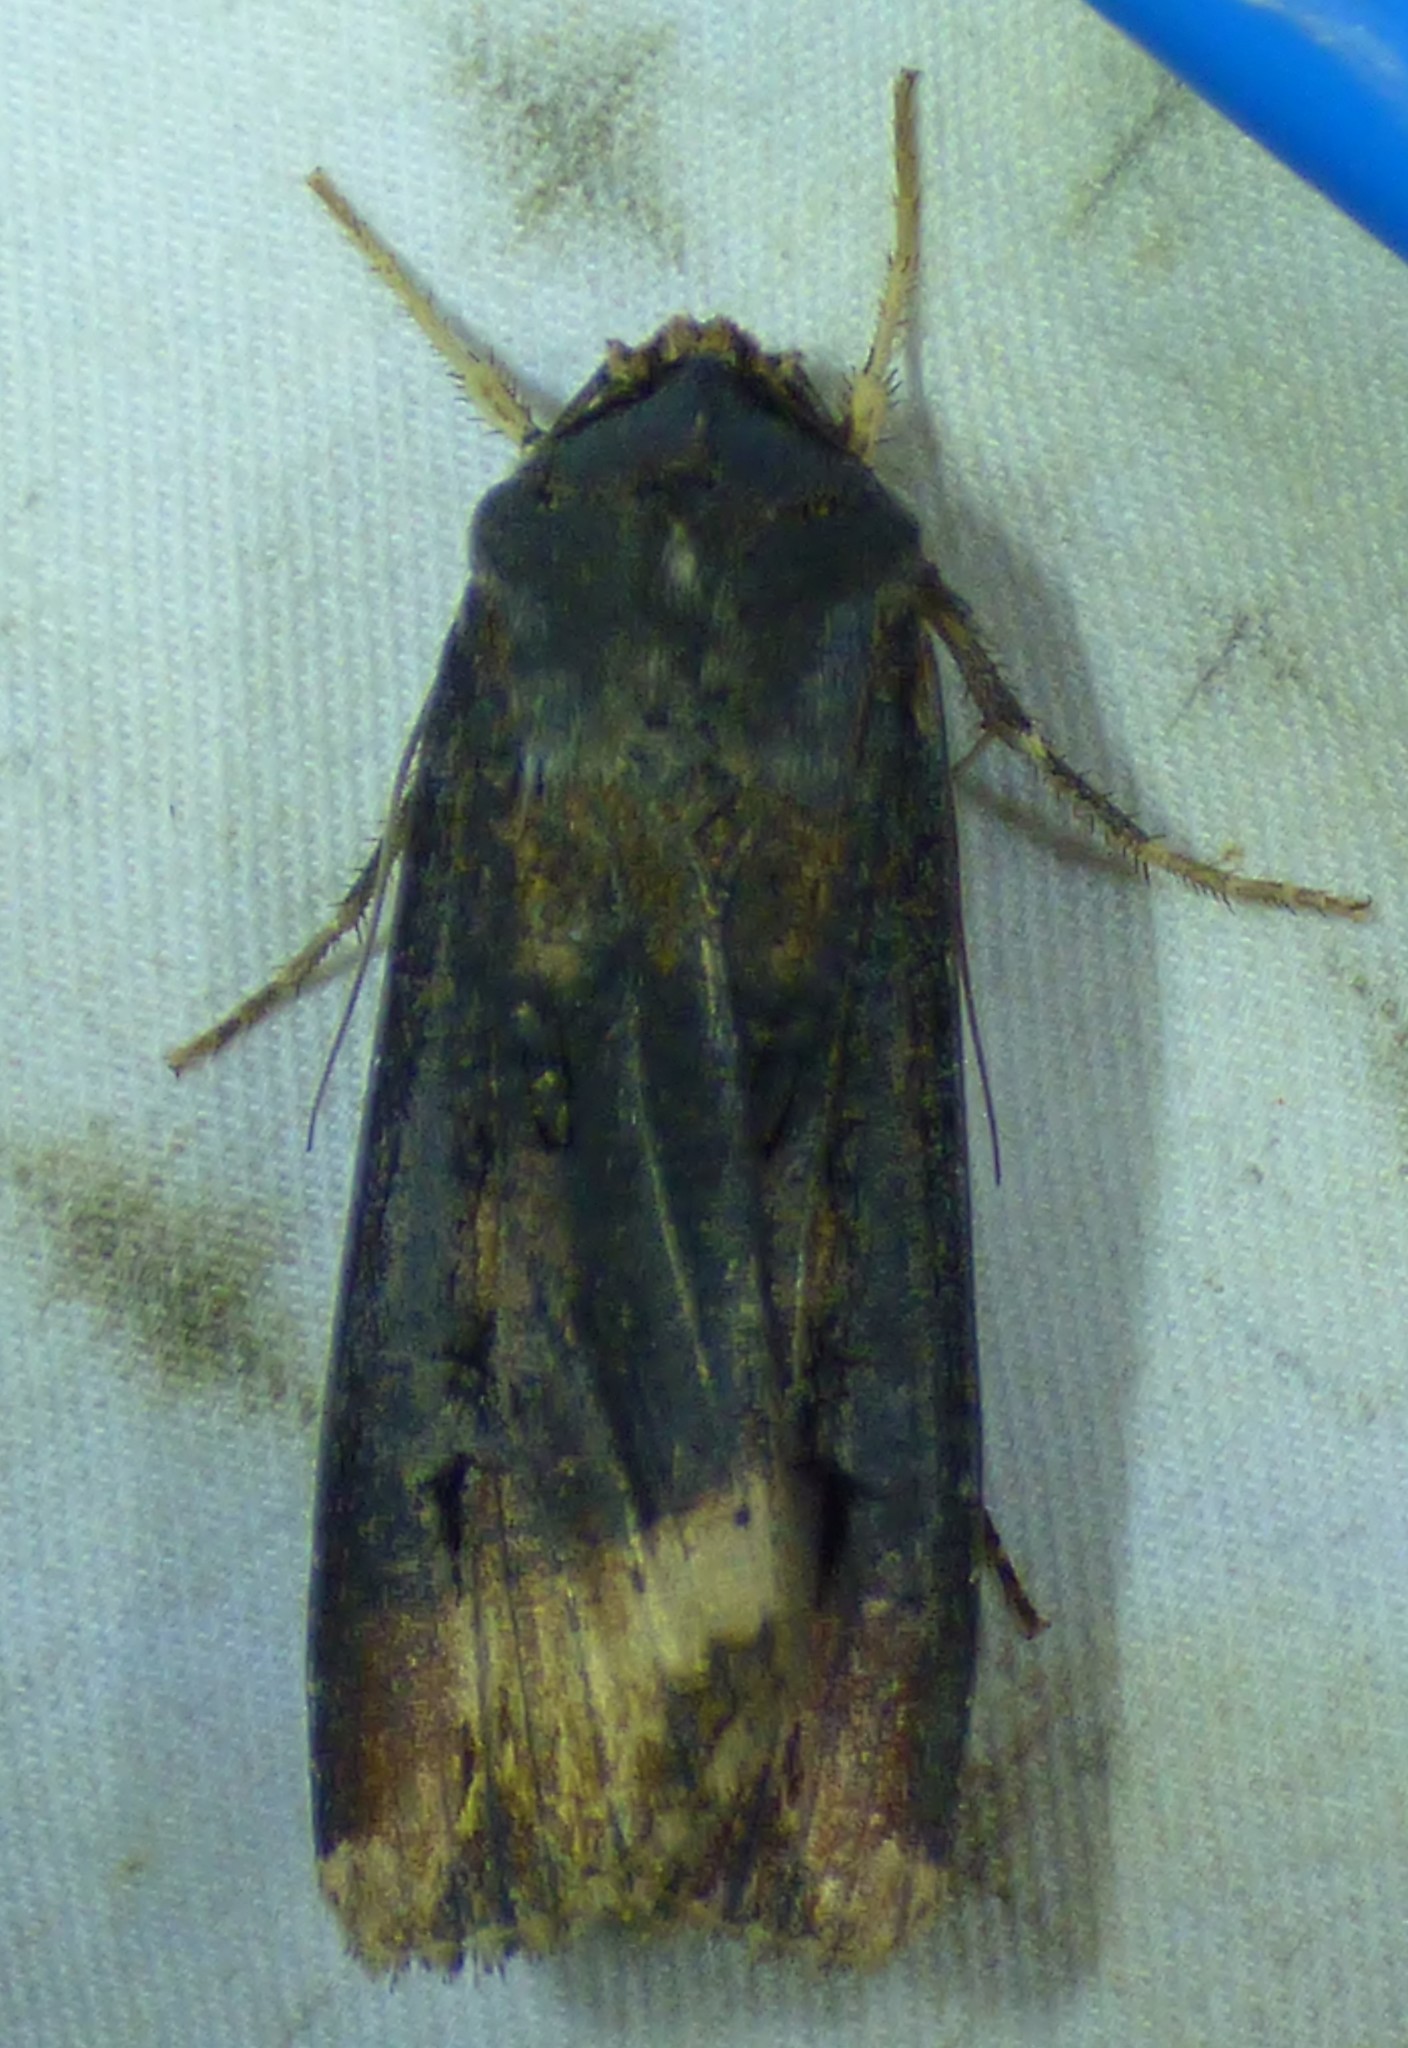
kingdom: Animalia
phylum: Arthropoda
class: Insecta
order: Lepidoptera
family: Noctuidae
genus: Agrotis
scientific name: Agrotis ipsilon
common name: Dark sword-grass
